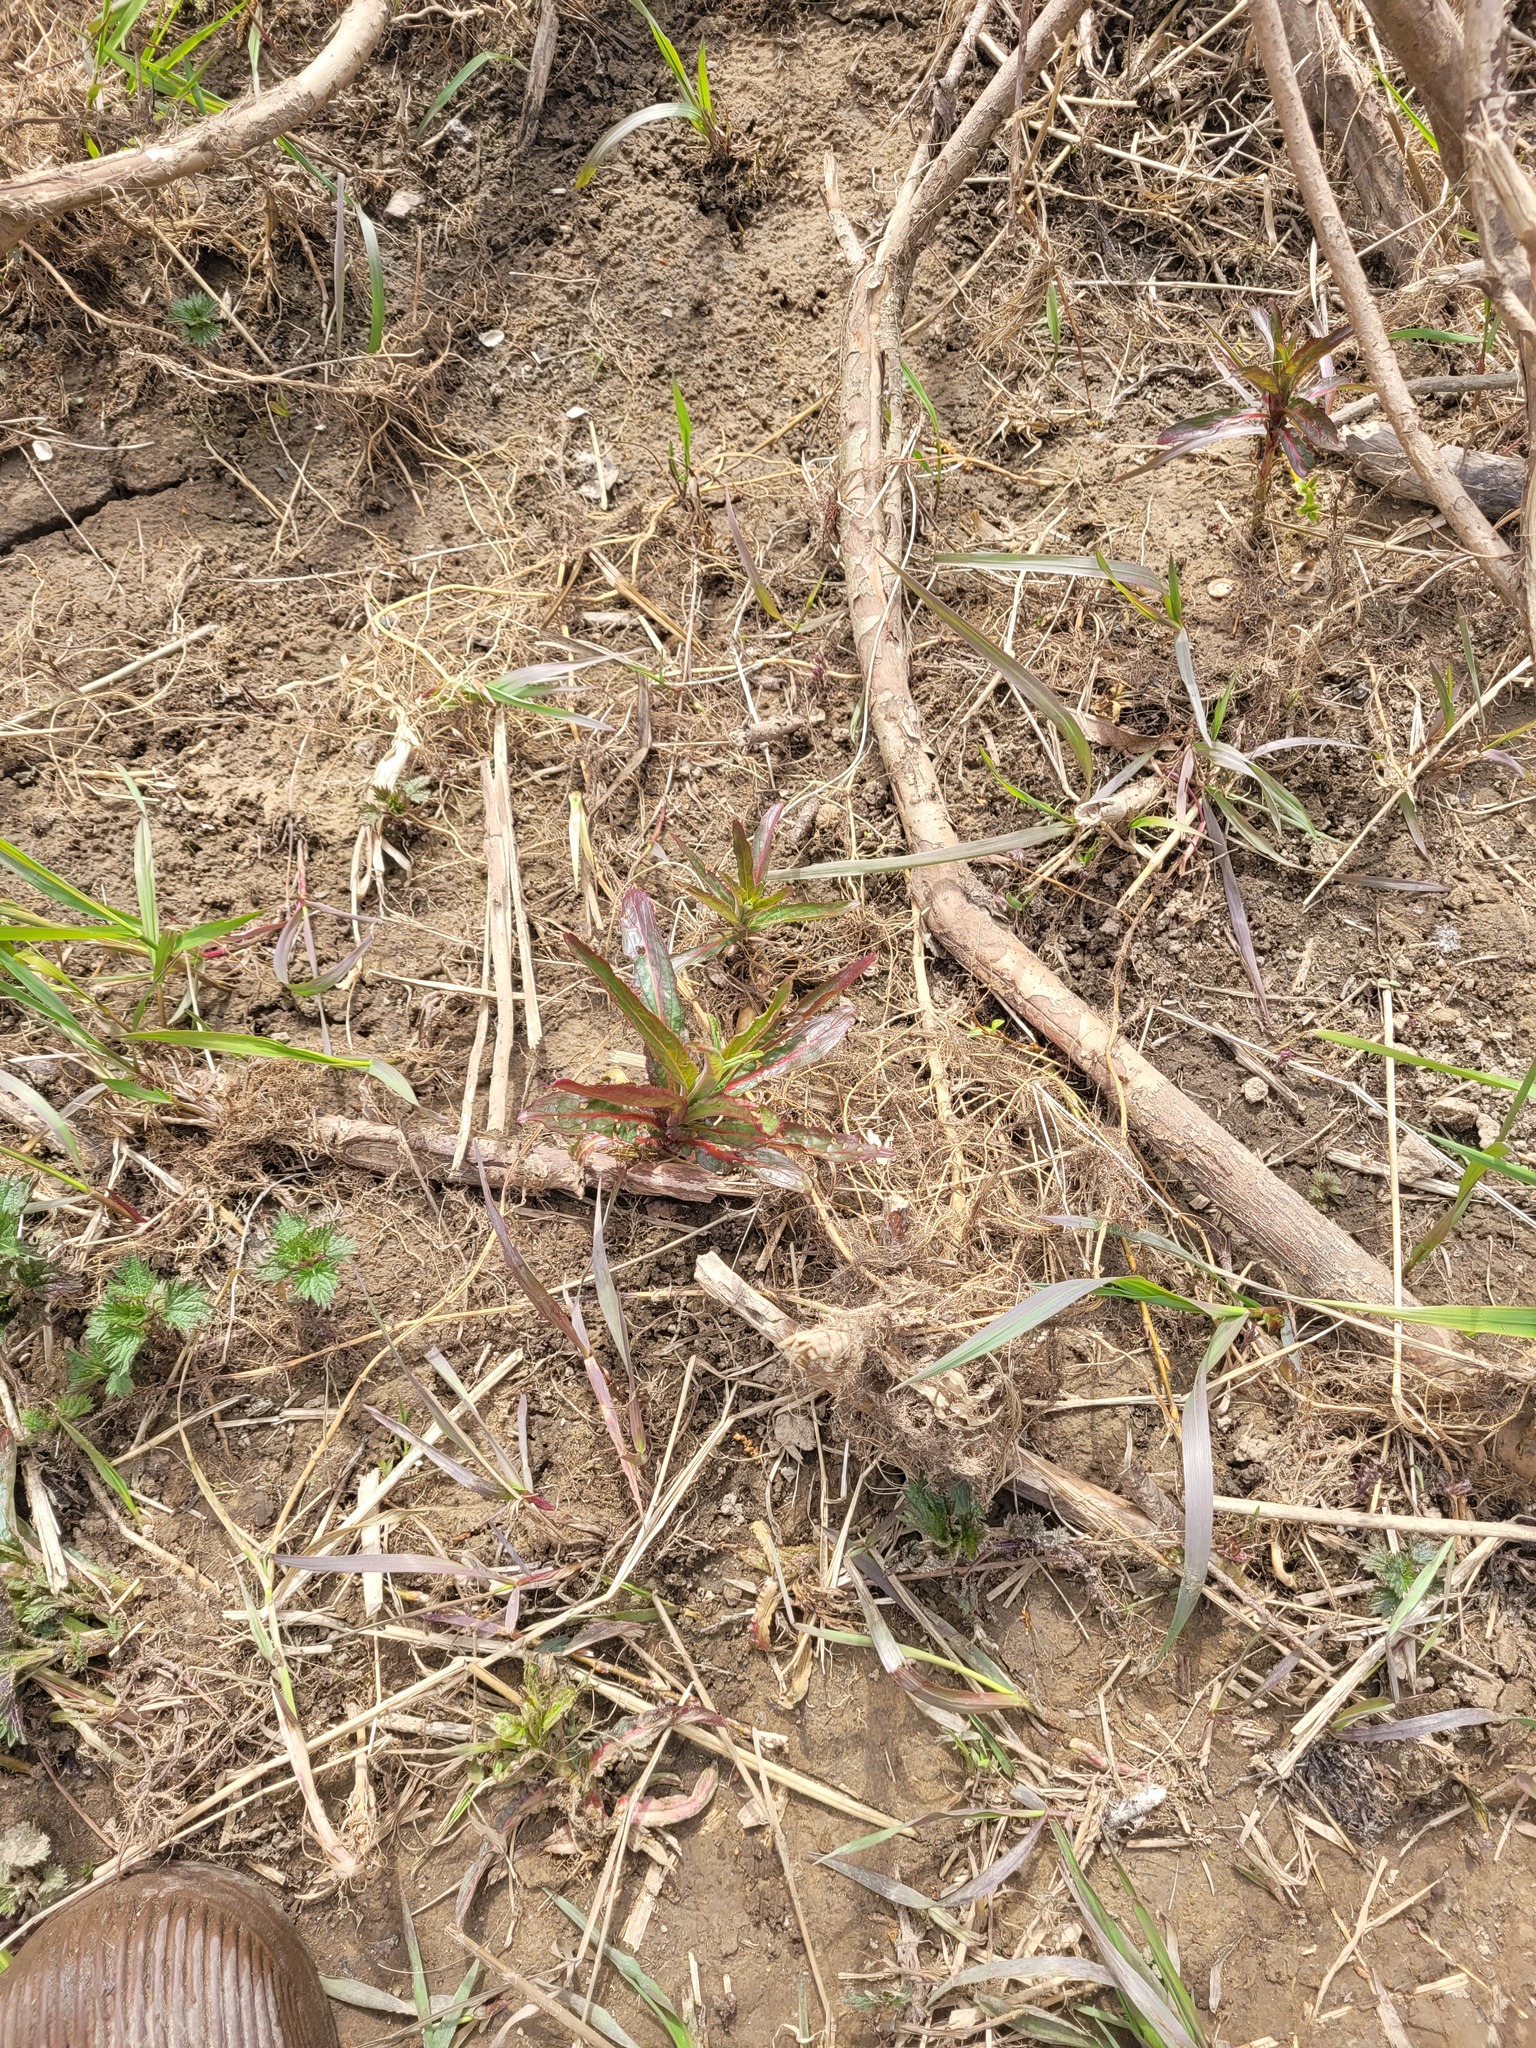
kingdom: Plantae
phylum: Tracheophyta
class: Magnoliopsida
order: Myrtales
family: Onagraceae
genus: Epilobium
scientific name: Epilobium hirsutum
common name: Great willowherb
